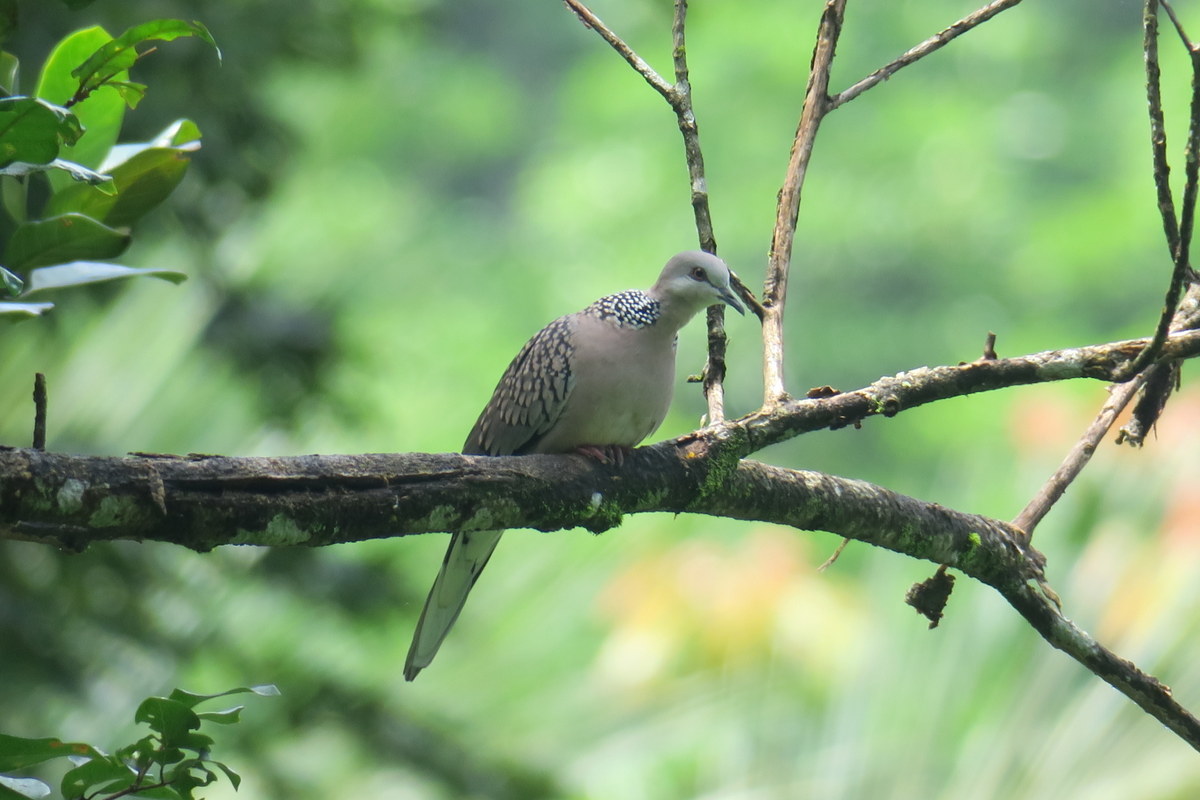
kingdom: Animalia
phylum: Chordata
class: Aves
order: Columbiformes
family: Columbidae
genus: Spilopelia
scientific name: Spilopelia chinensis
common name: Spotted dove
